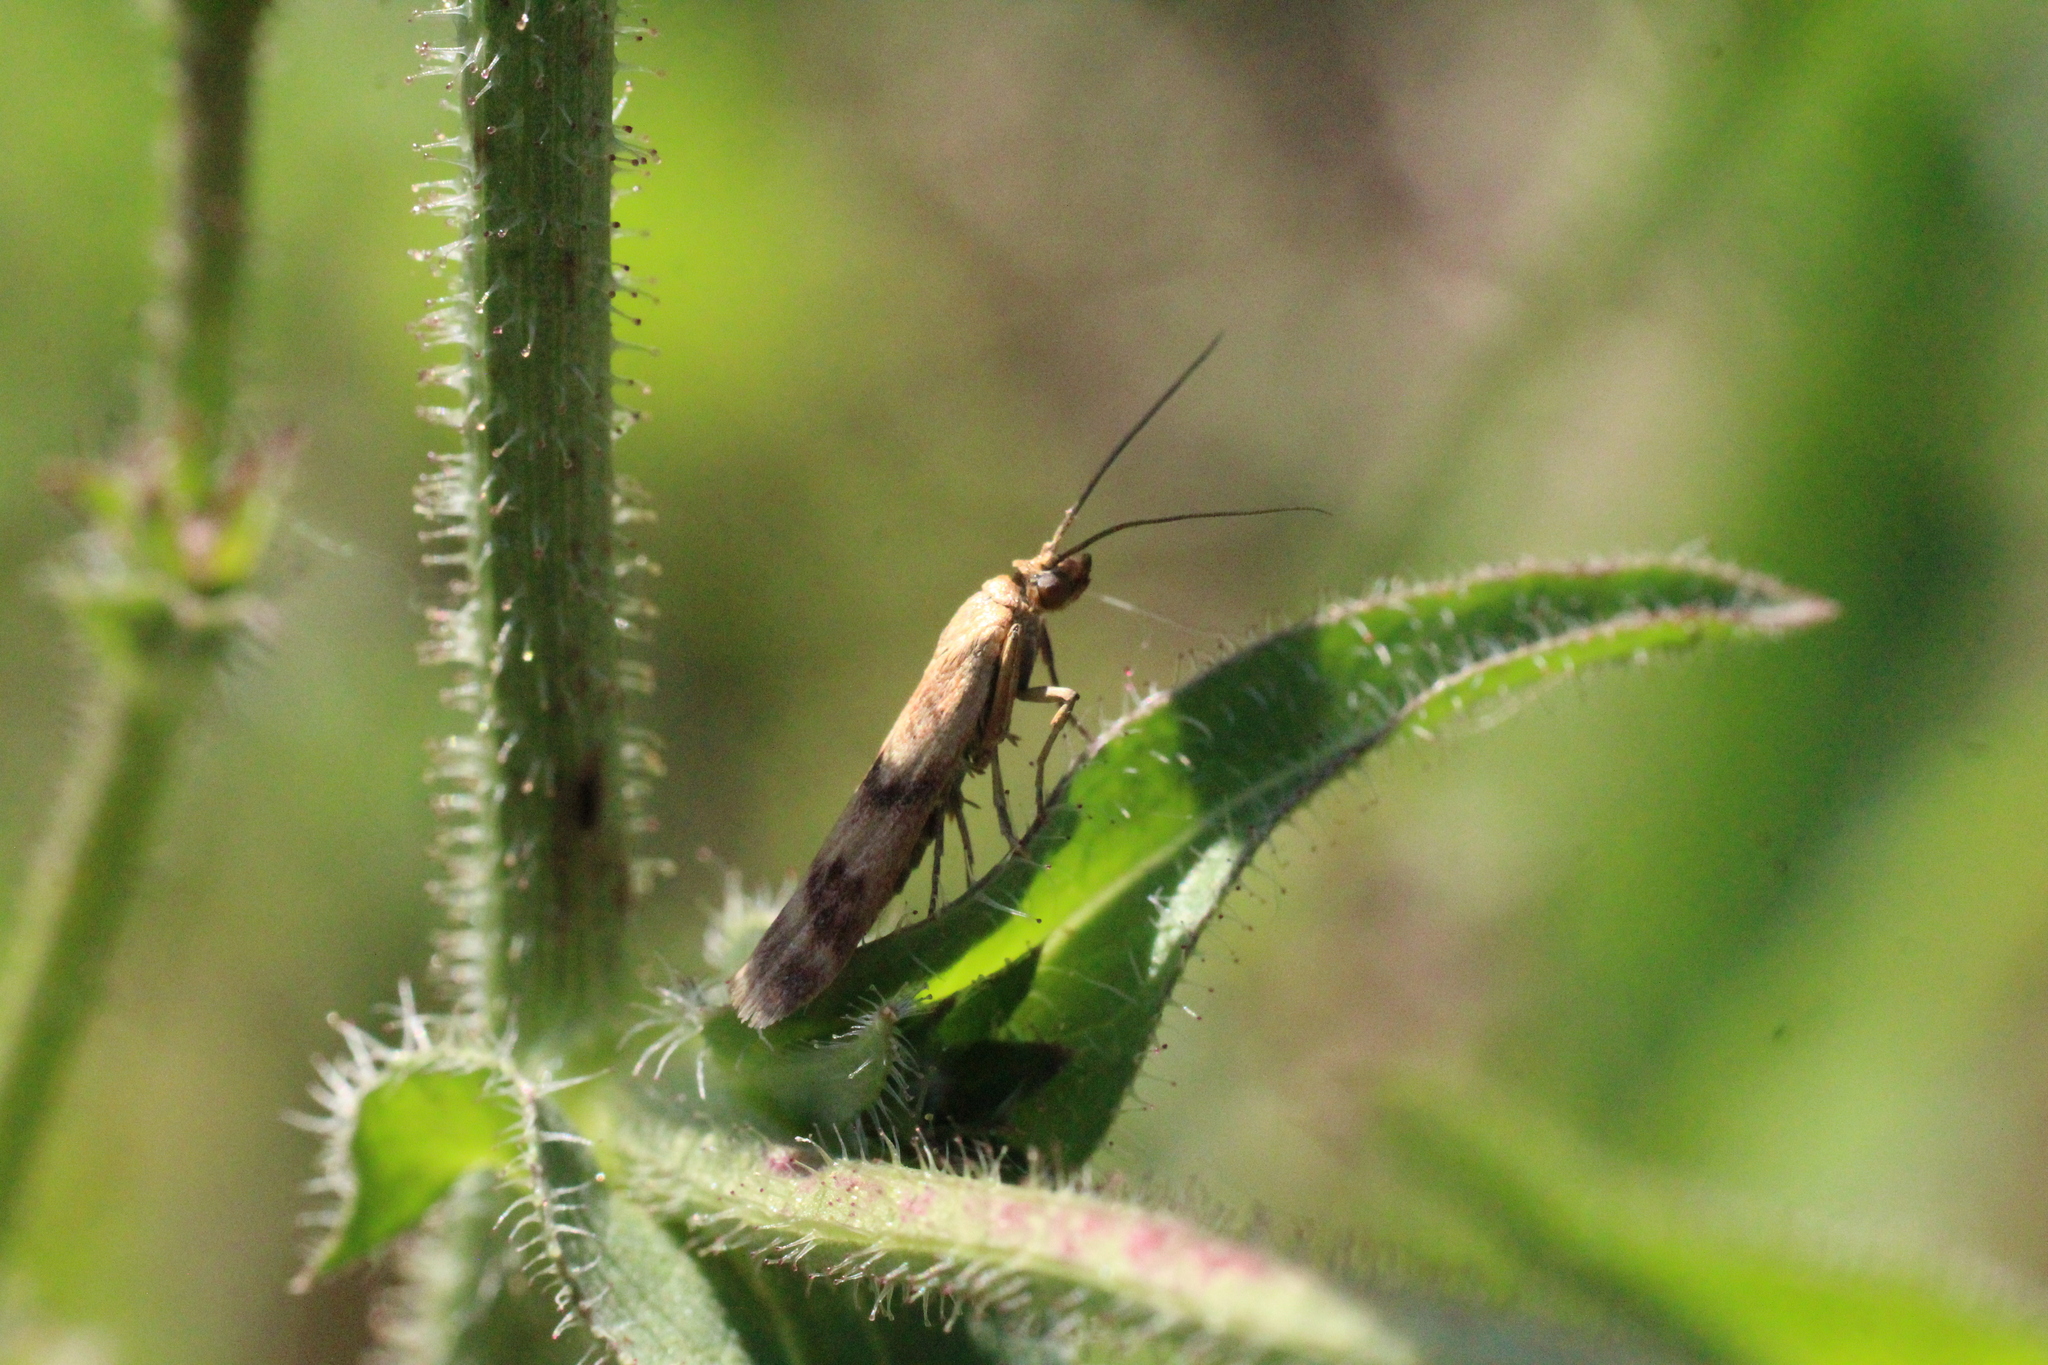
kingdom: Animalia
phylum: Arthropoda
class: Insecta
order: Lepidoptera
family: Pyralidae
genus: Homoeosoma
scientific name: Homoeosoma sinuella
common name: Twin-barred knot-horn
